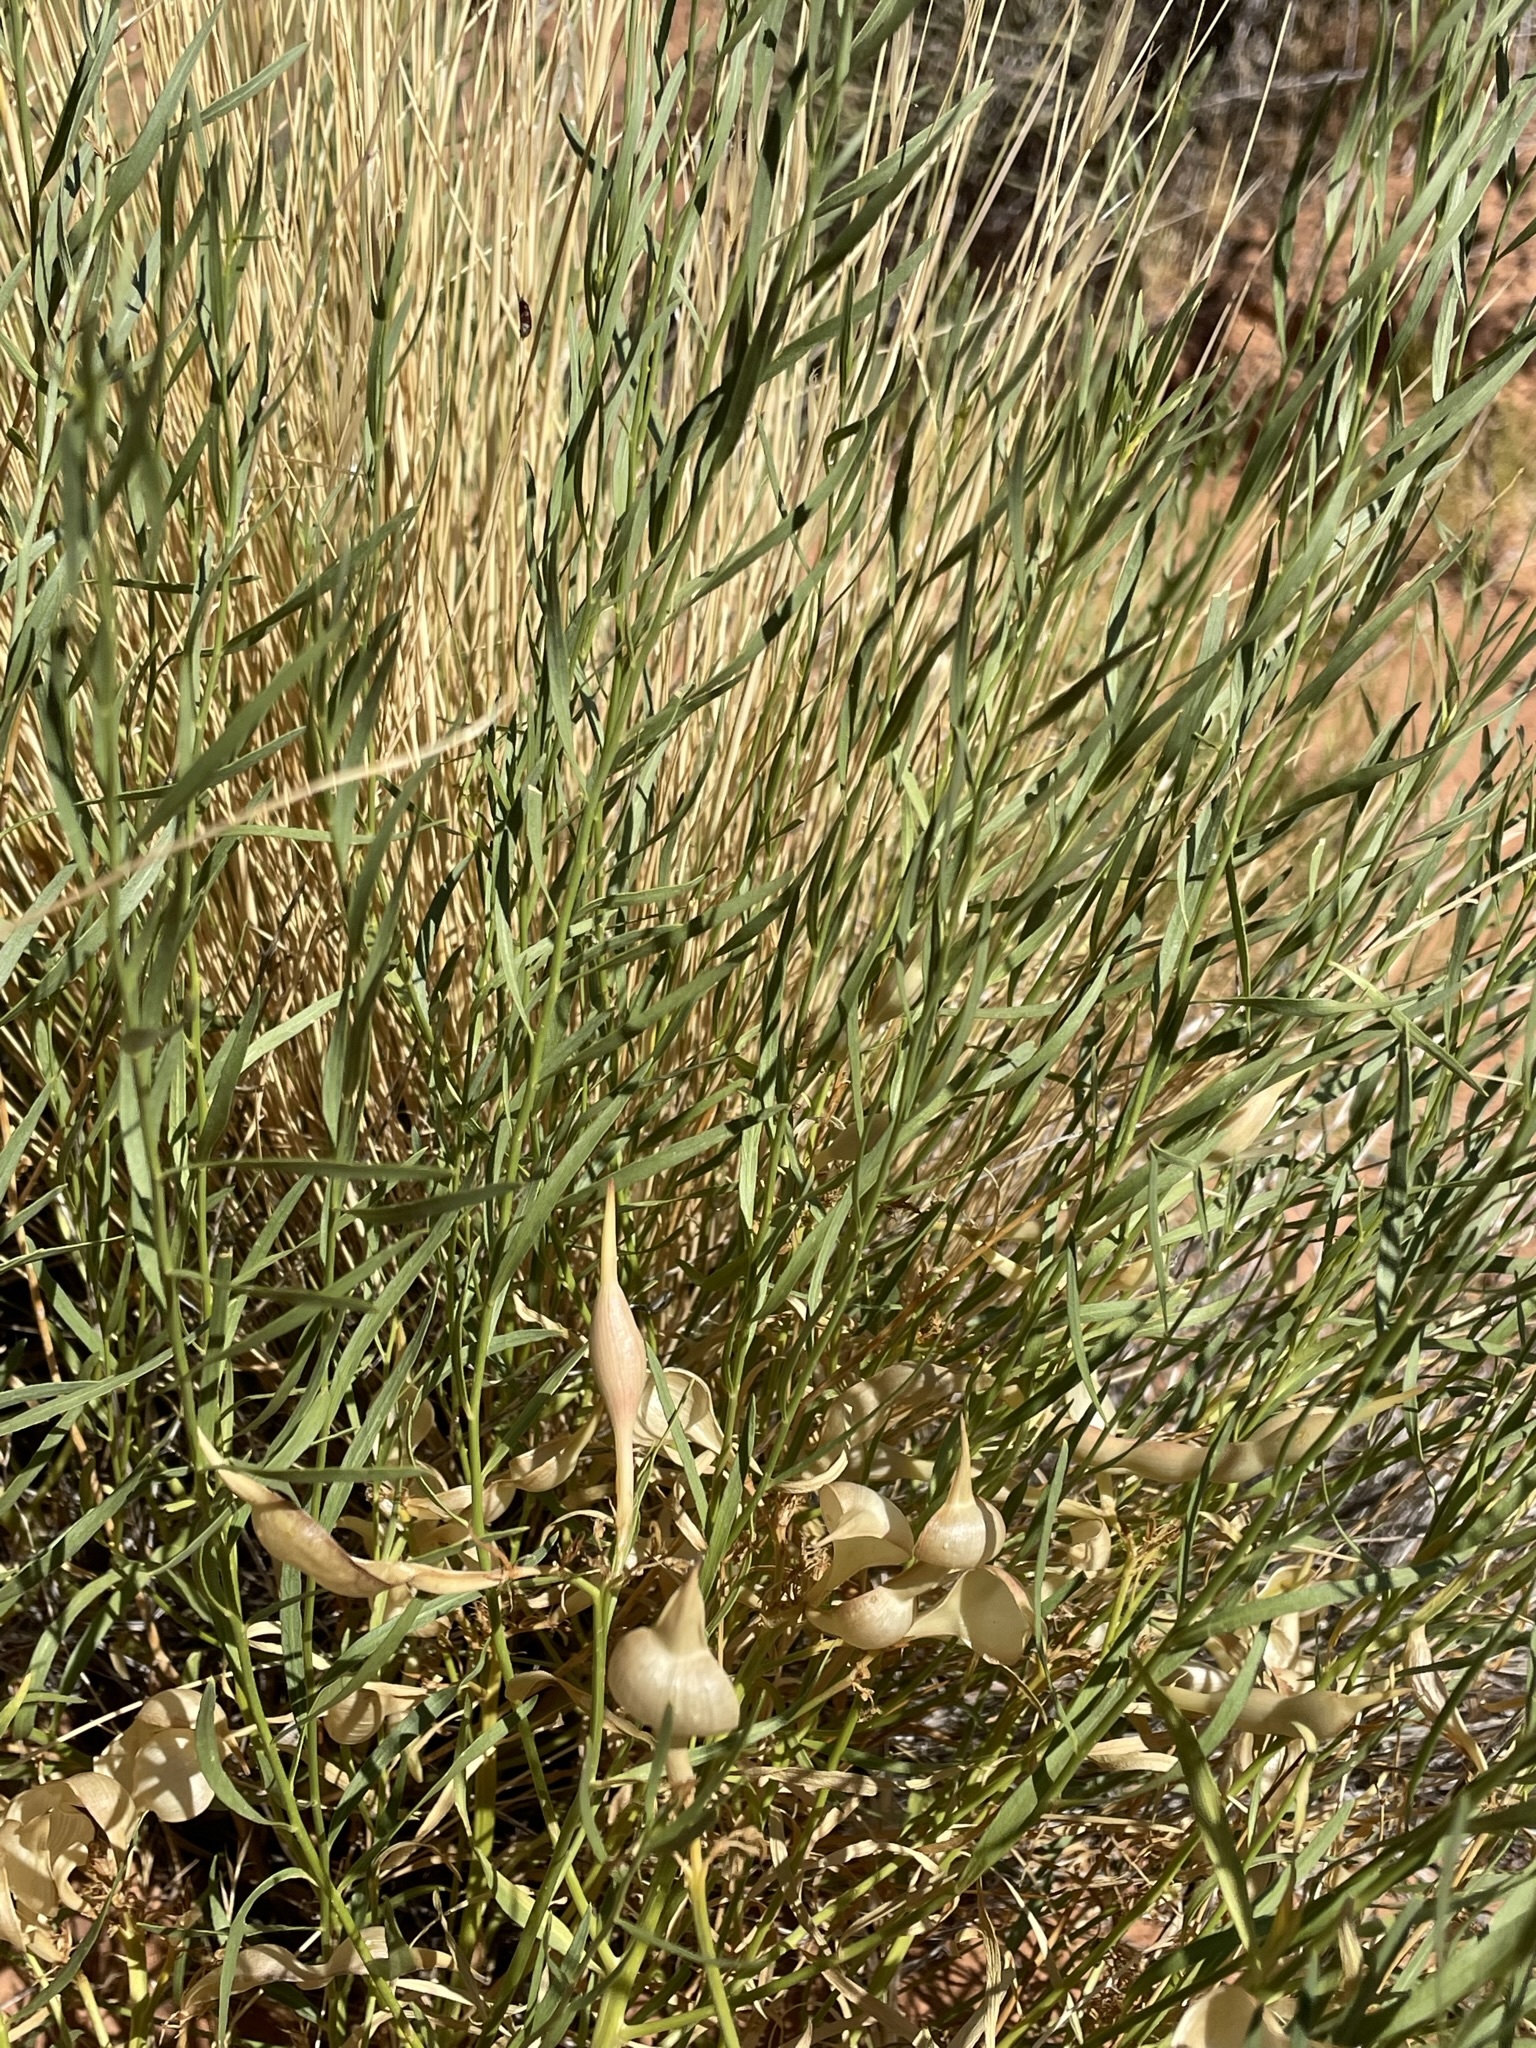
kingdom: Plantae
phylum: Tracheophyta
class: Magnoliopsida
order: Gentianales
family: Apocynaceae
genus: Amsonia
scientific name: Amsonia tomentosa
